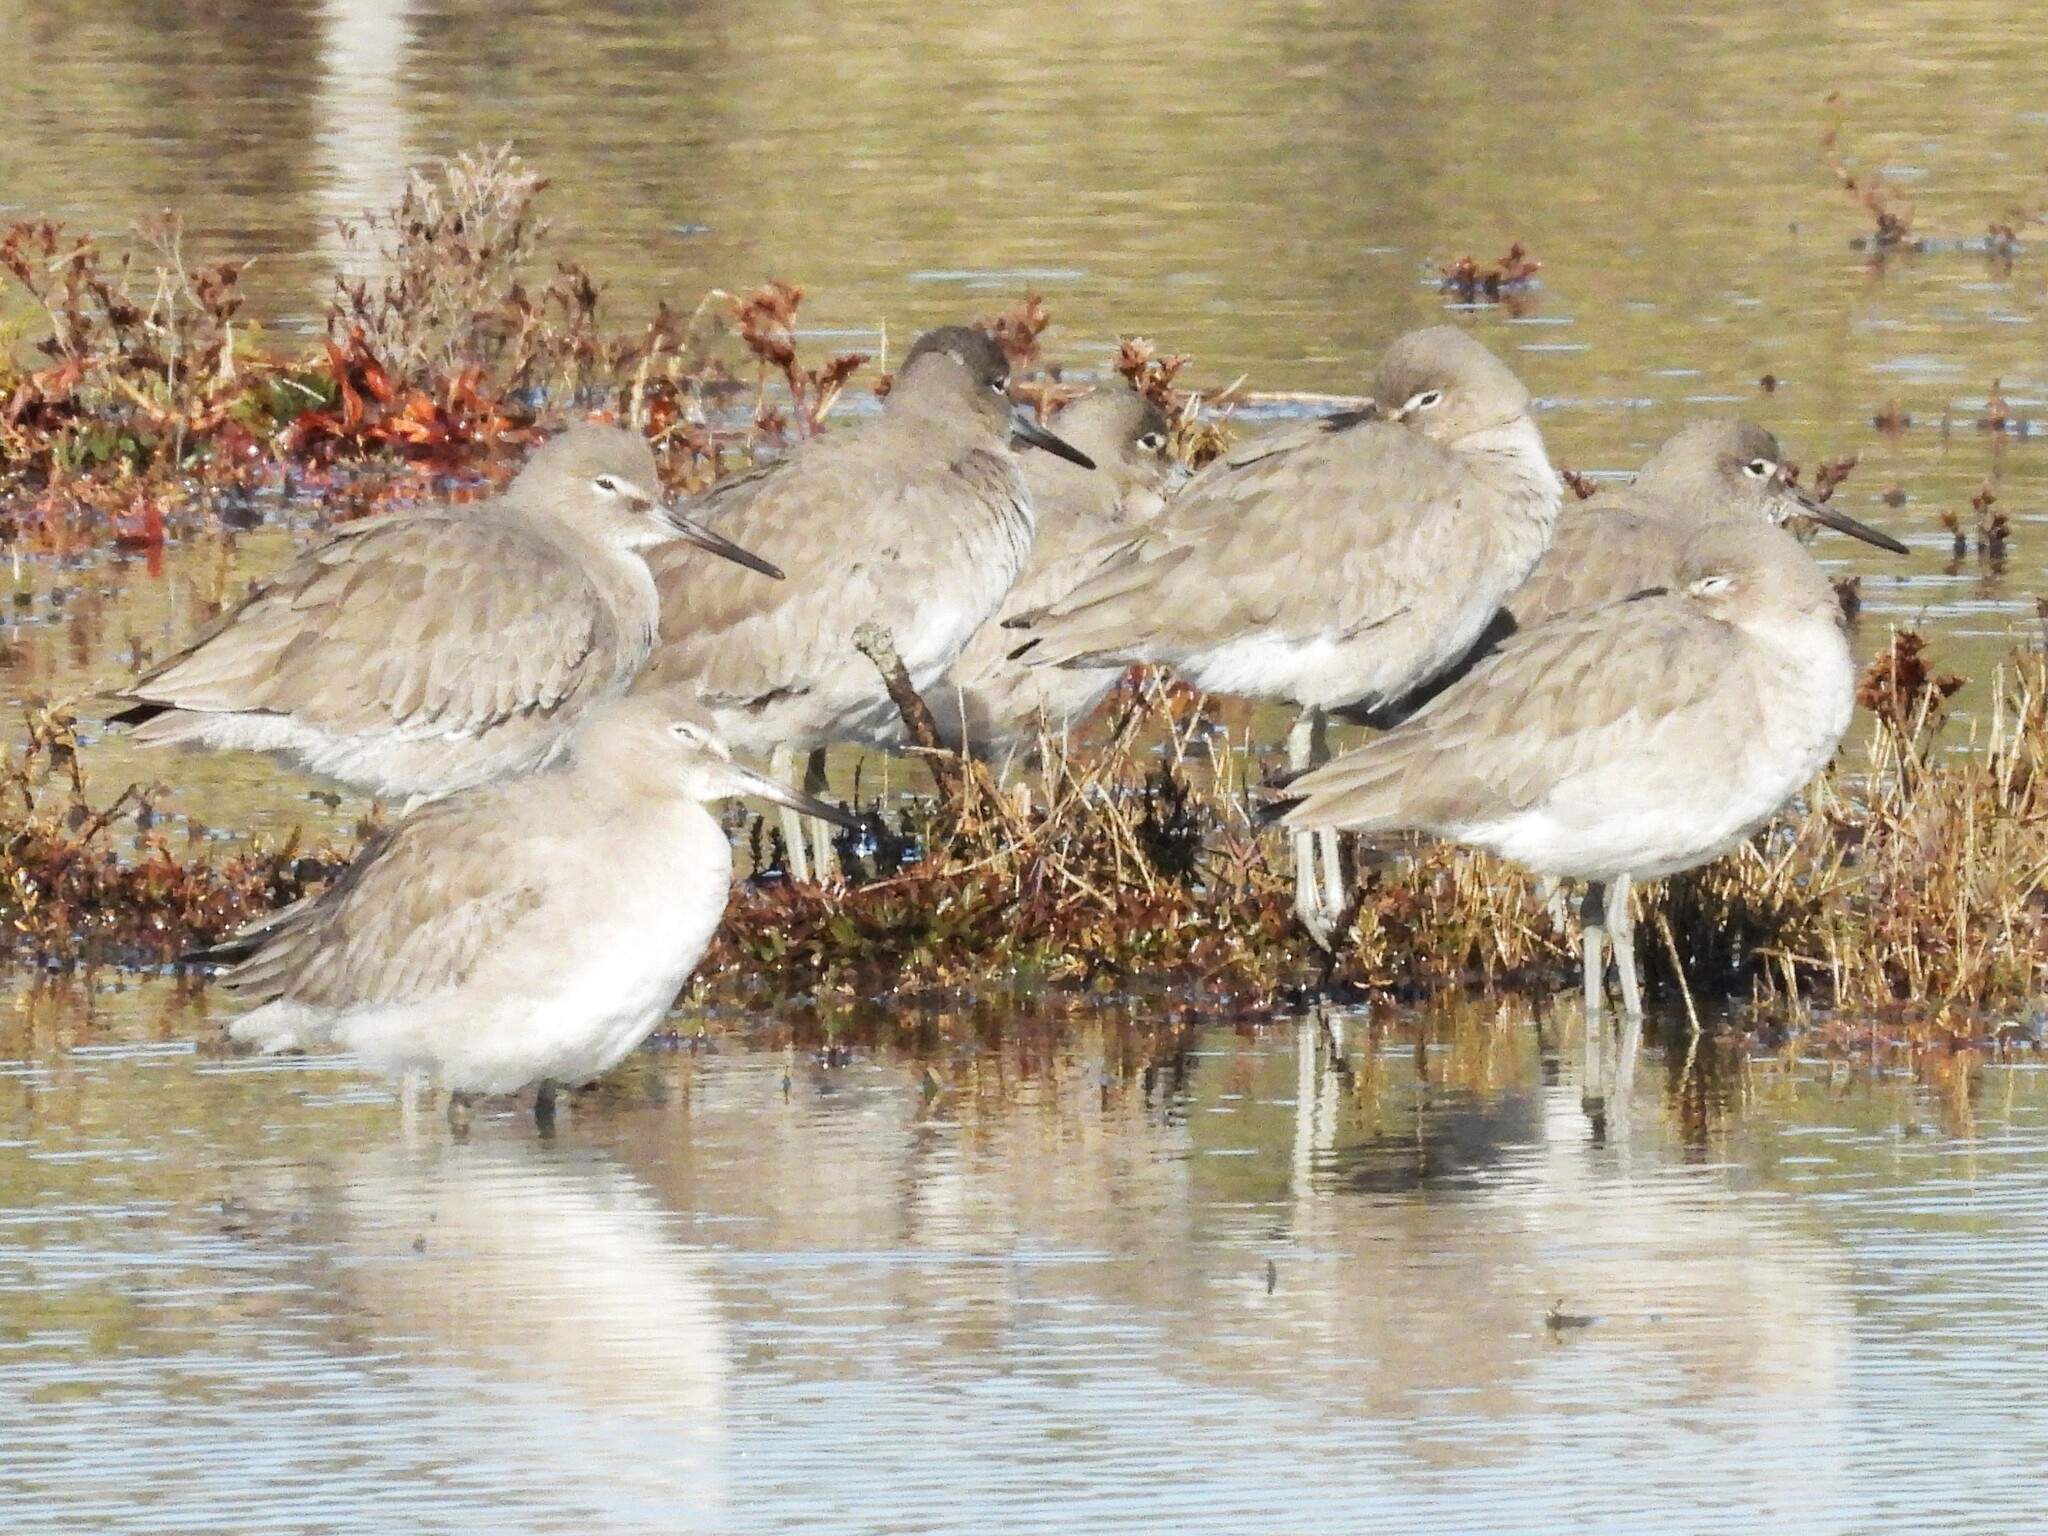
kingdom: Animalia
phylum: Chordata
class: Aves
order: Charadriiformes
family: Scolopacidae
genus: Tringa
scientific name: Tringa semipalmata
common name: Willet
